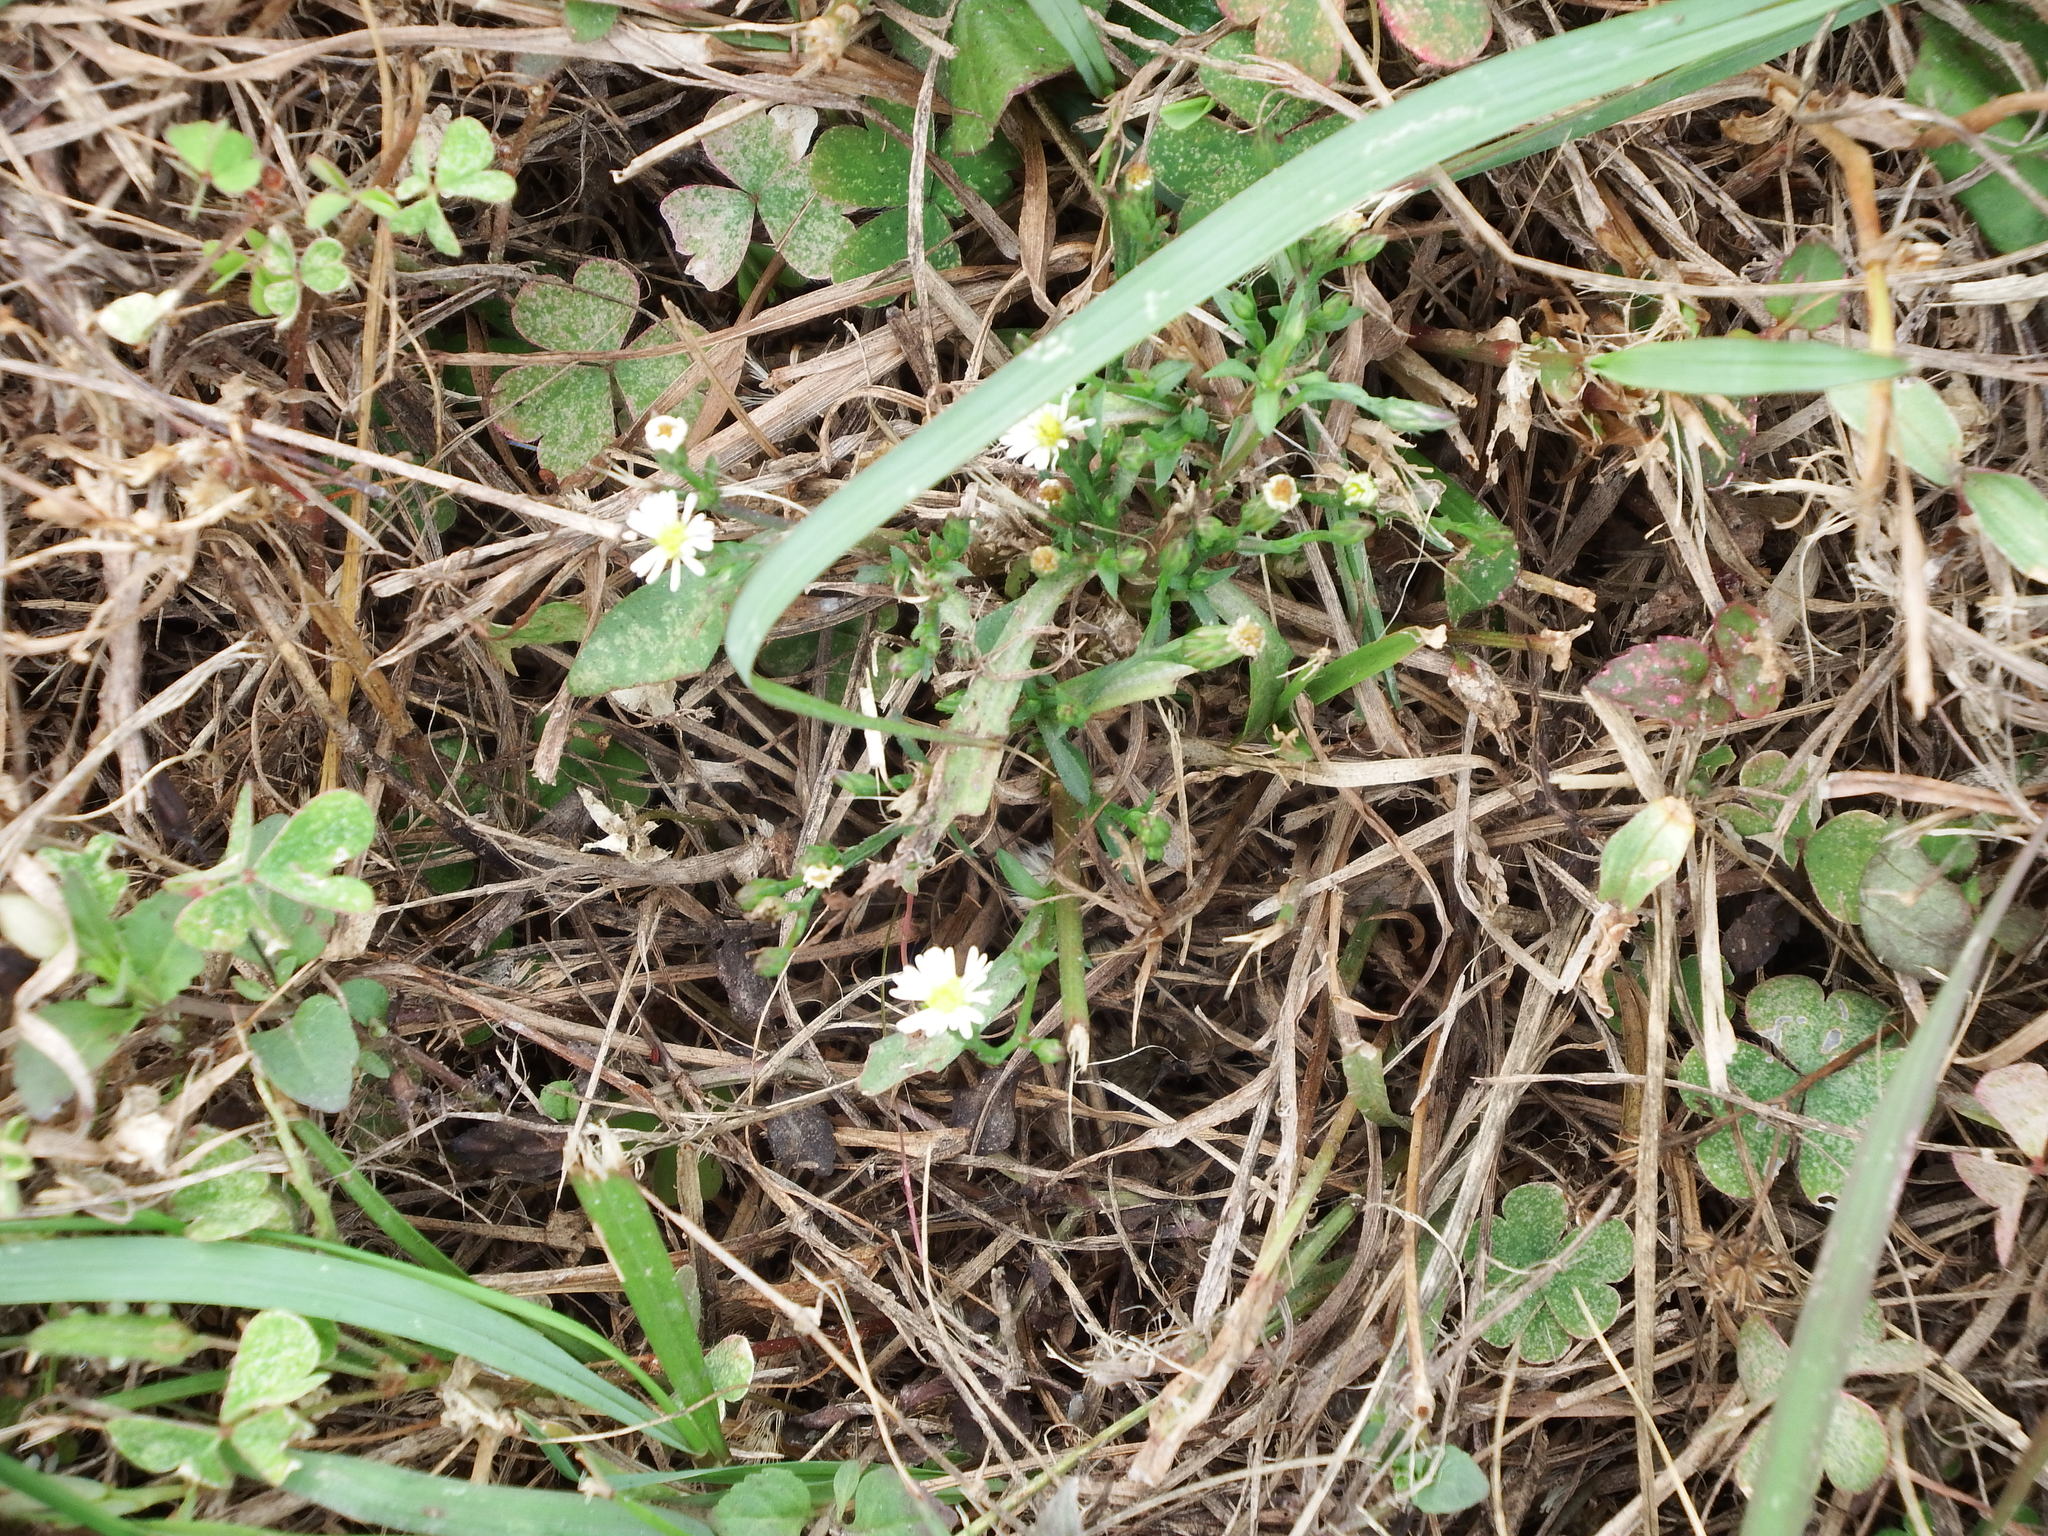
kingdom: Plantae
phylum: Tracheophyta
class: Magnoliopsida
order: Asterales
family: Asteraceae
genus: Symphyotrichum
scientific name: Symphyotrichum subulatum
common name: Annual saltmarsh aster
